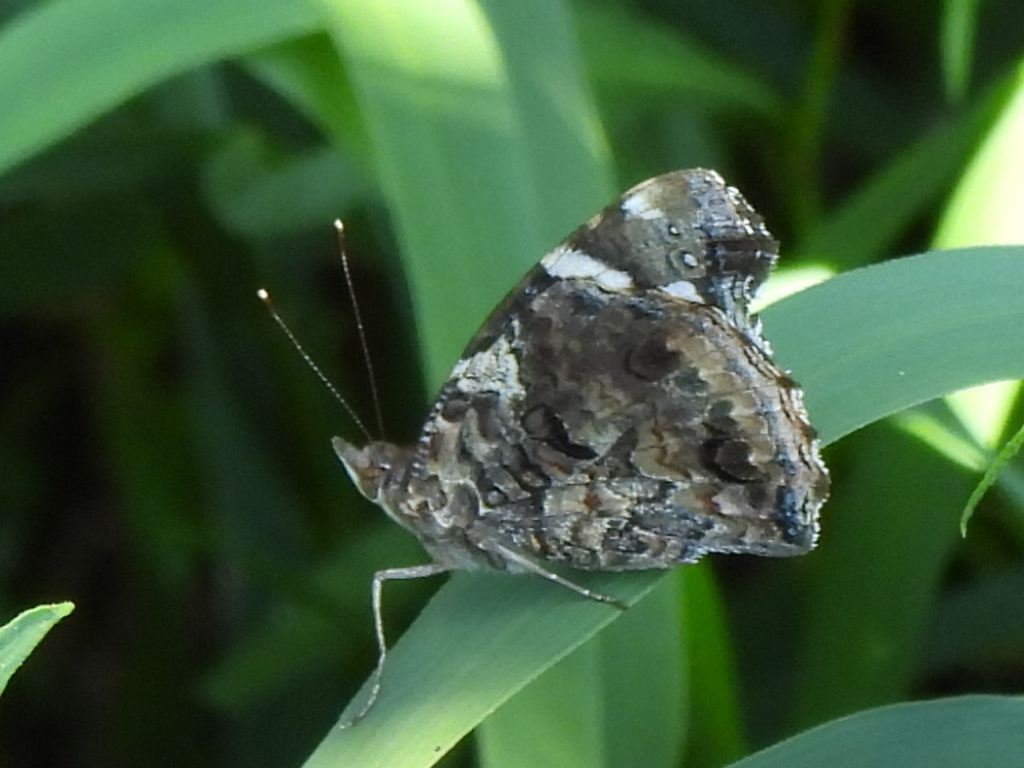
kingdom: Animalia
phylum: Arthropoda
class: Insecta
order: Lepidoptera
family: Nymphalidae
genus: Vanessa
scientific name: Vanessa atalanta
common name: Red admiral
